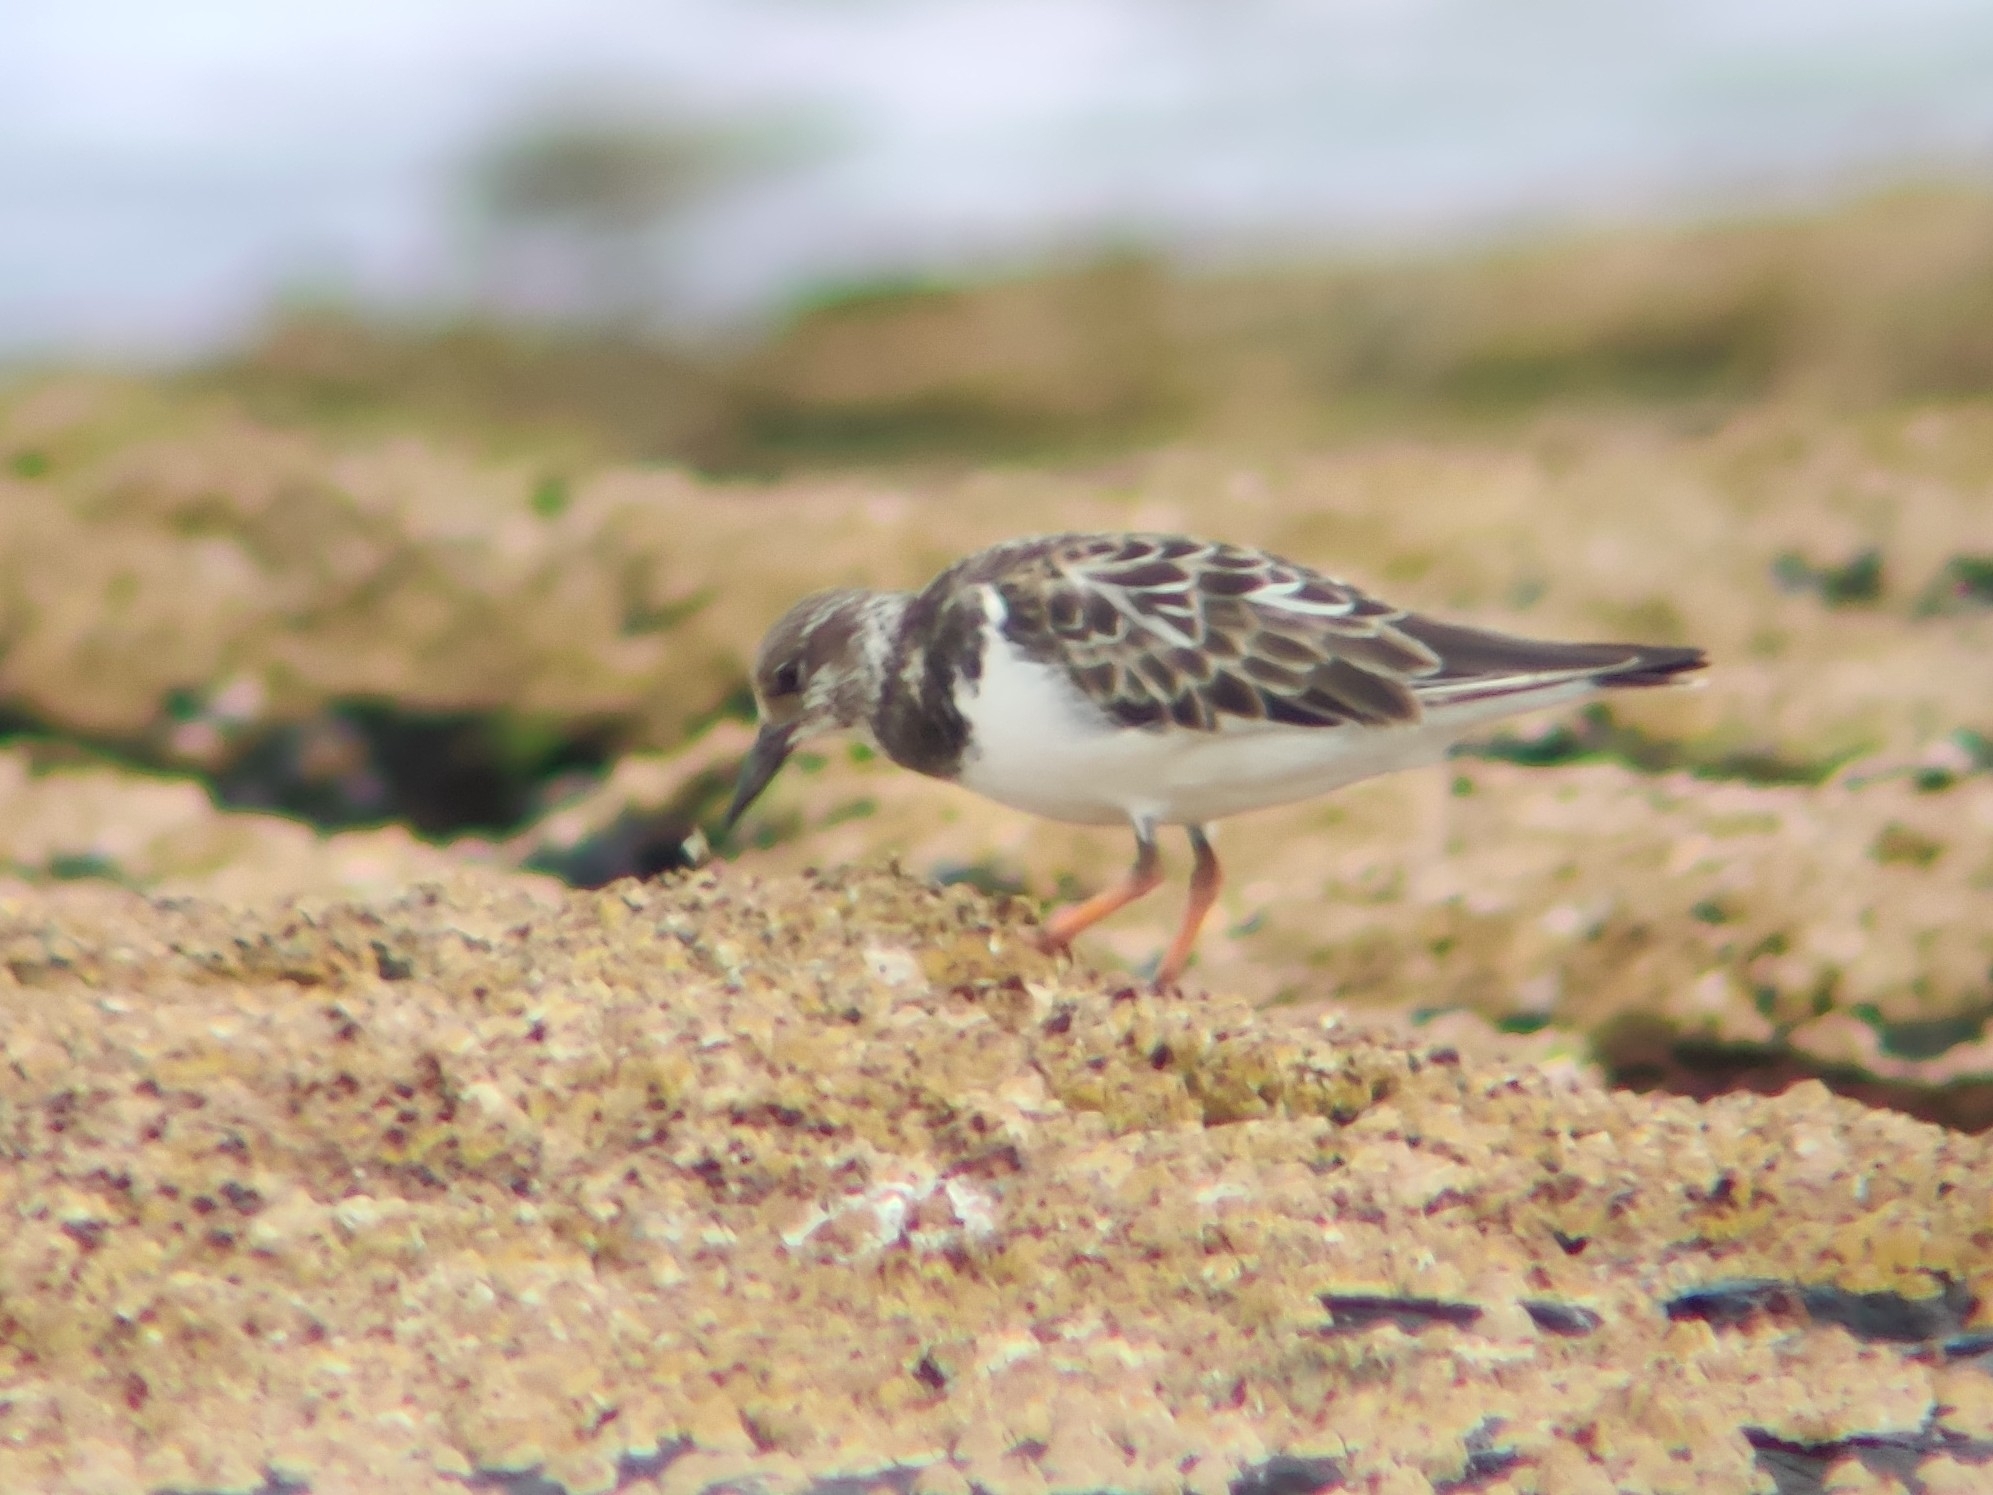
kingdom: Animalia
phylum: Chordata
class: Aves
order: Charadriiformes
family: Scolopacidae
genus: Arenaria
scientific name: Arenaria interpres
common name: Ruddy turnstone
